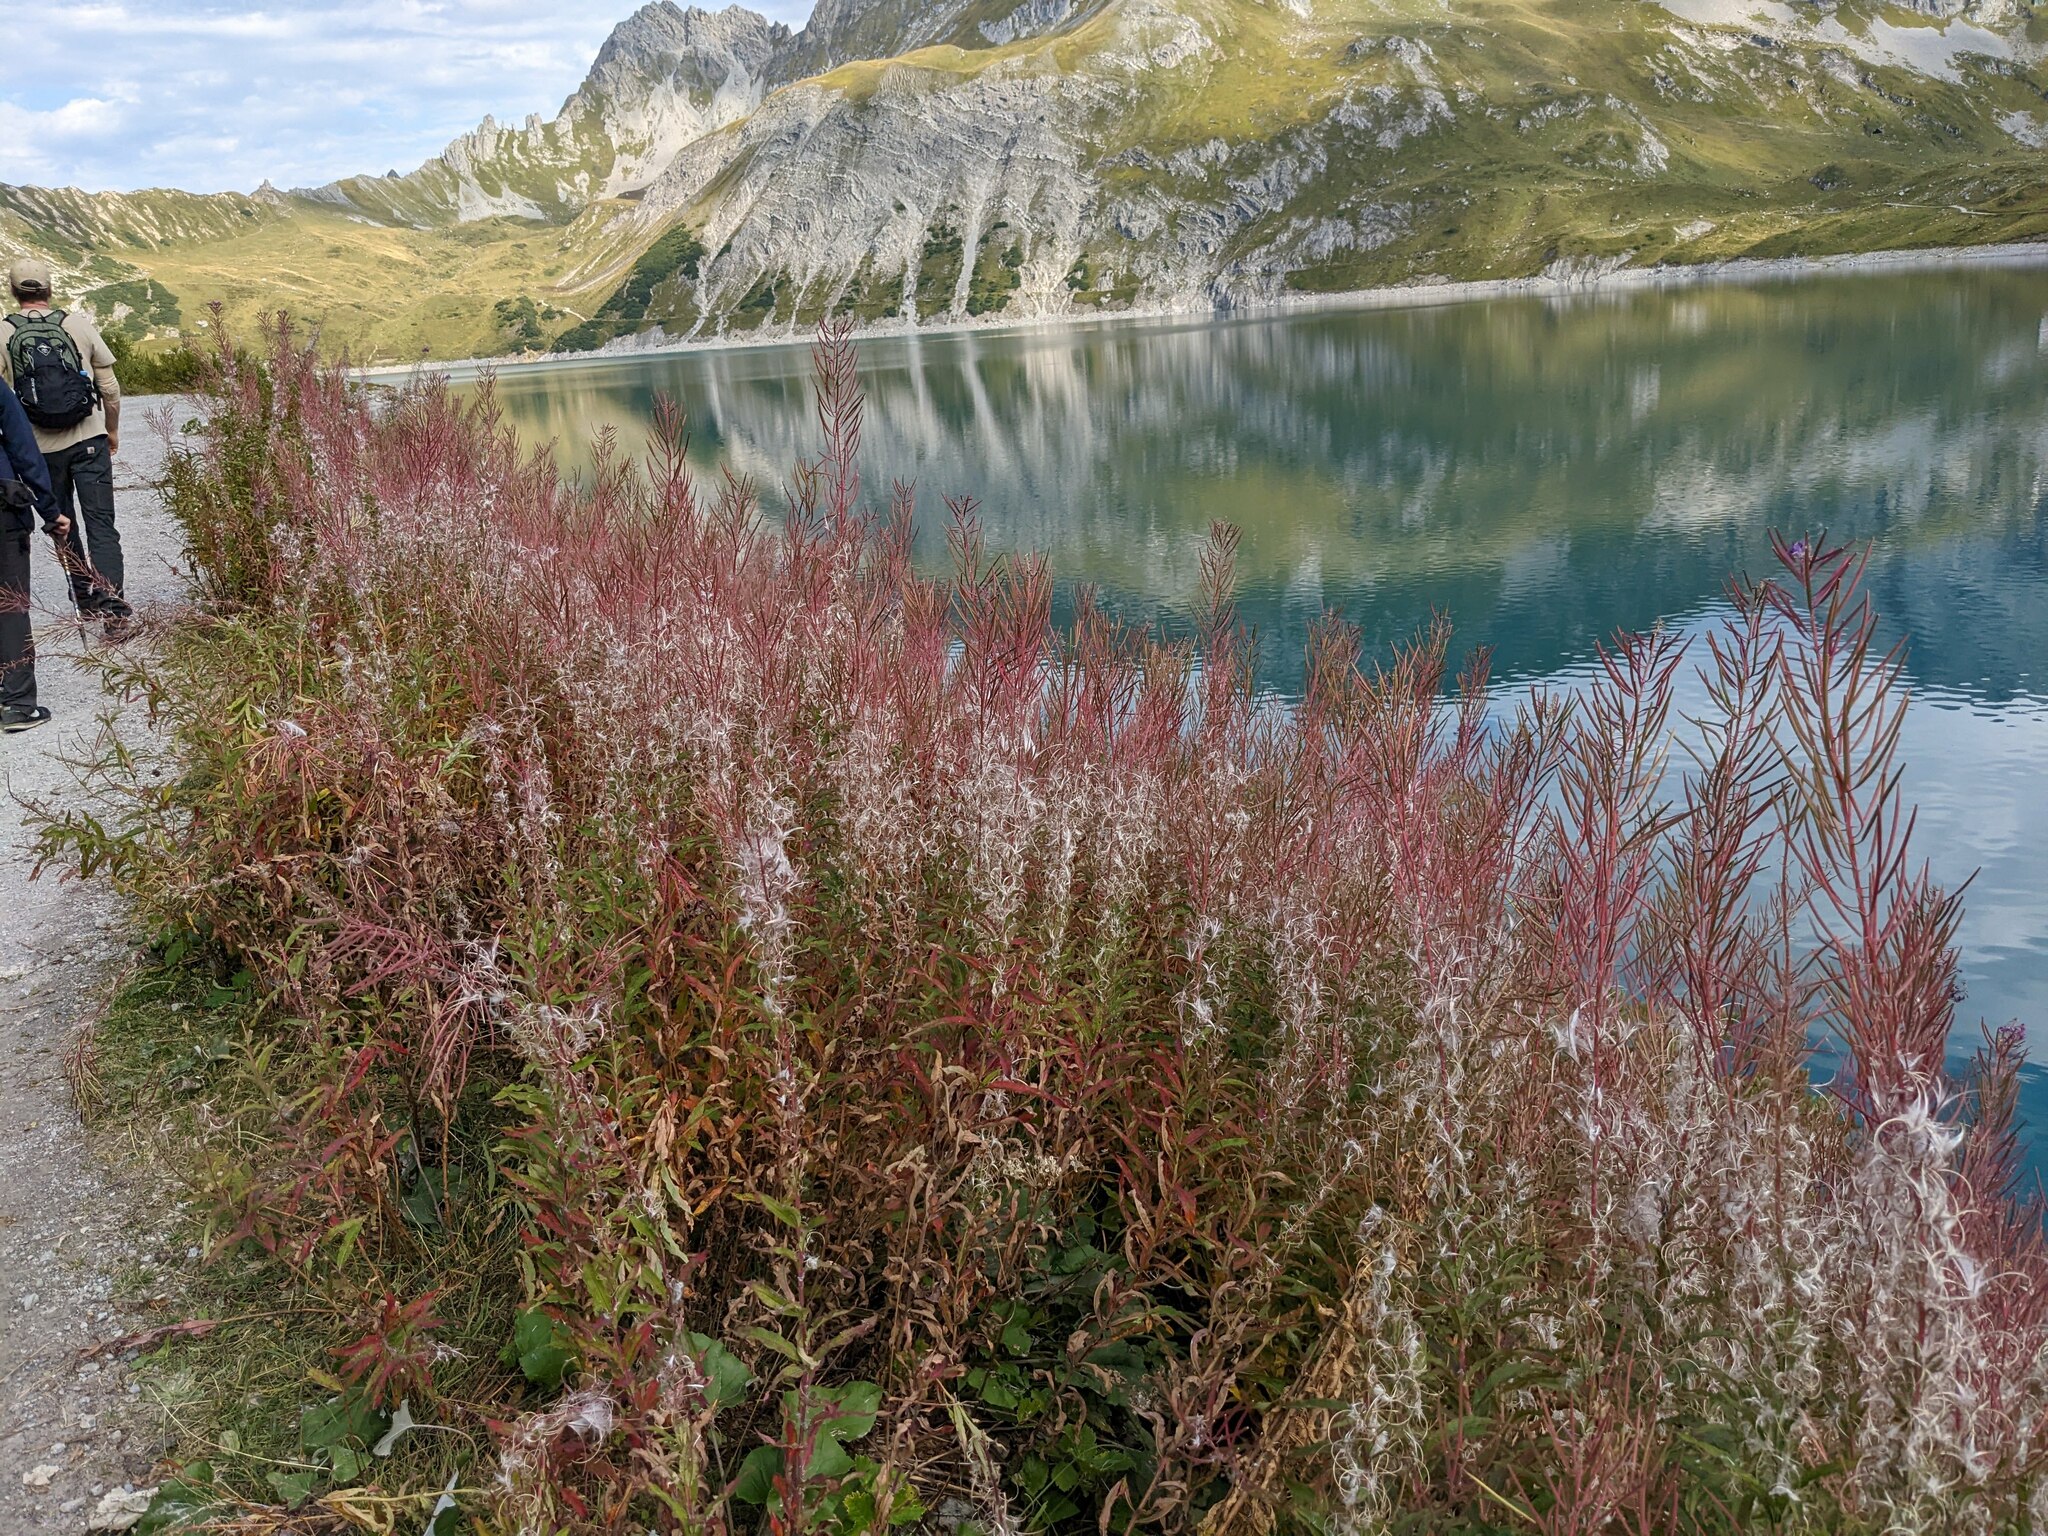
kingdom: Plantae
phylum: Tracheophyta
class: Magnoliopsida
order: Myrtales
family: Onagraceae
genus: Chamaenerion
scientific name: Chamaenerion angustifolium
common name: Fireweed
